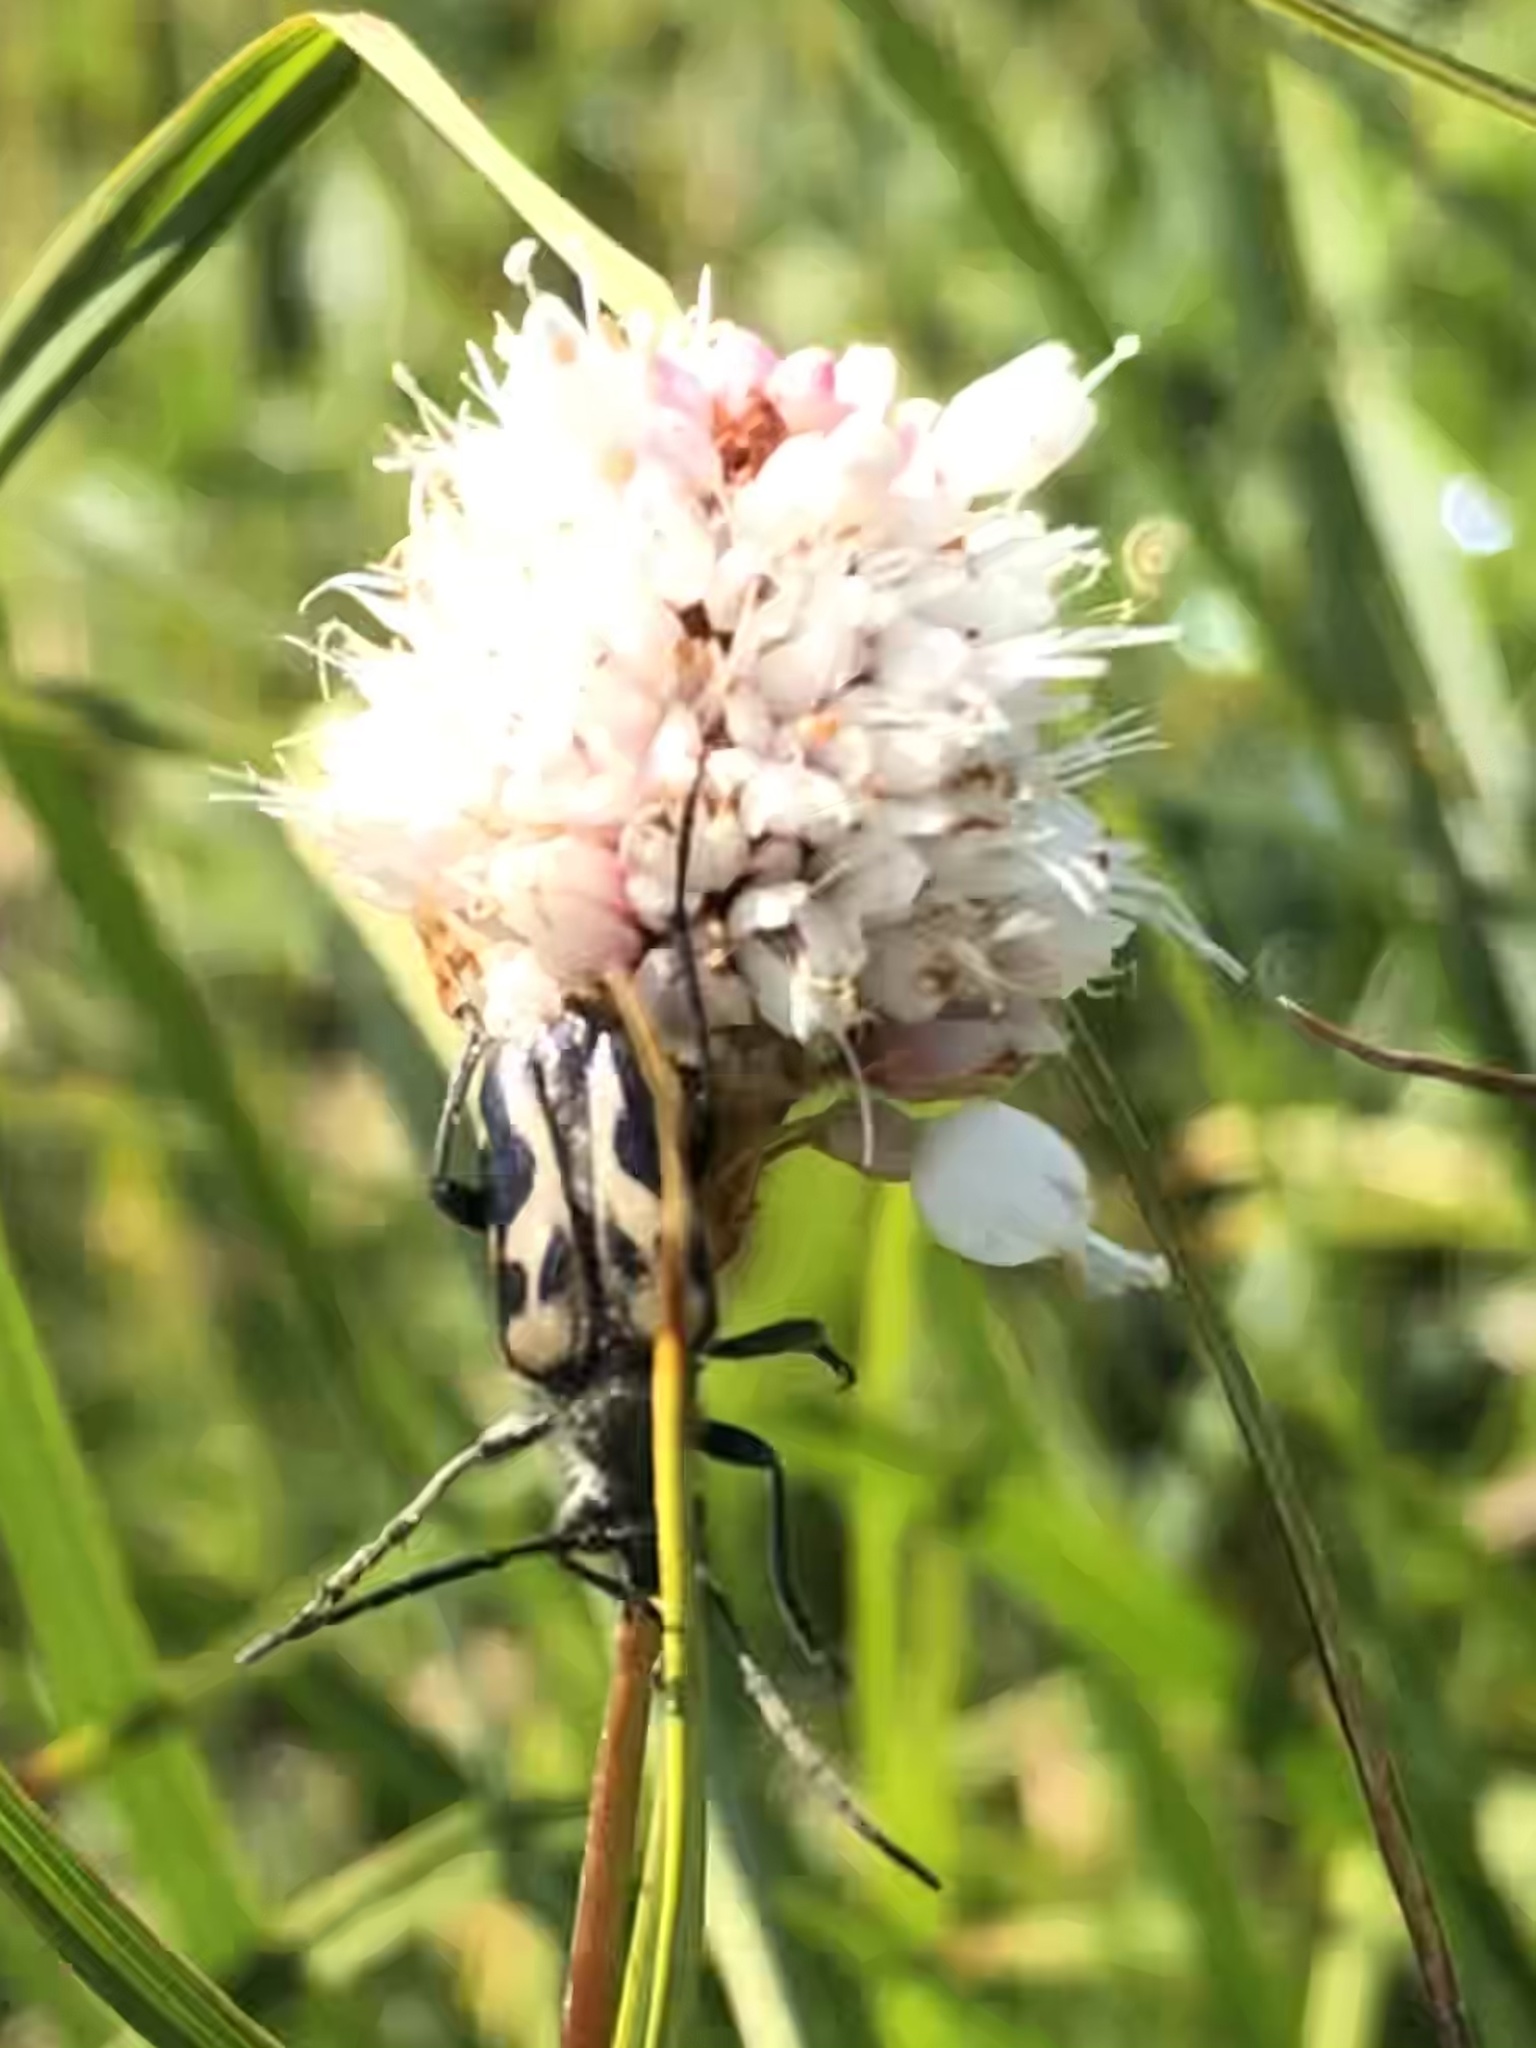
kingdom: Animalia
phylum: Arthropoda
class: Insecta
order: Coleoptera
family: Cerambycidae
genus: Judolia
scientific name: Judolia instabilis
